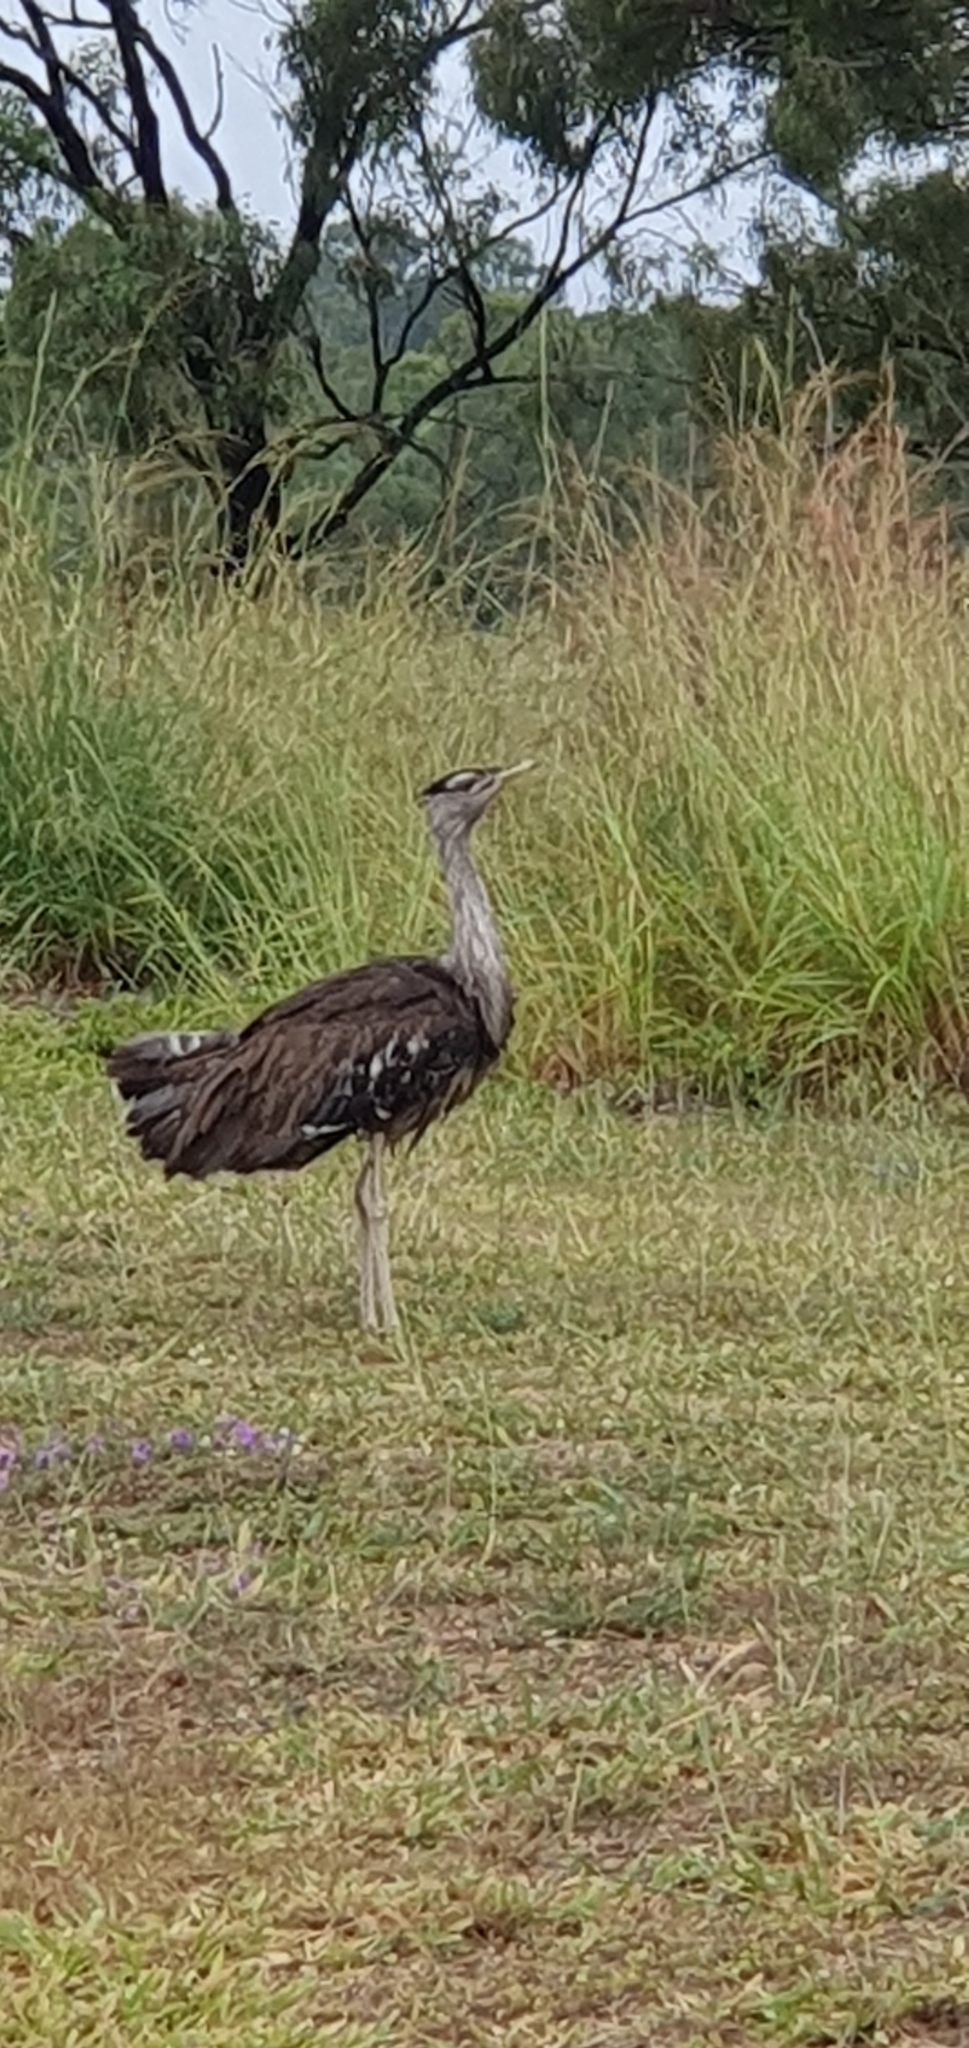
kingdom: Animalia
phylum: Chordata
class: Aves
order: Otidiformes
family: Otididae
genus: Ardeotis
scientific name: Ardeotis australis
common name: Australian bustard
